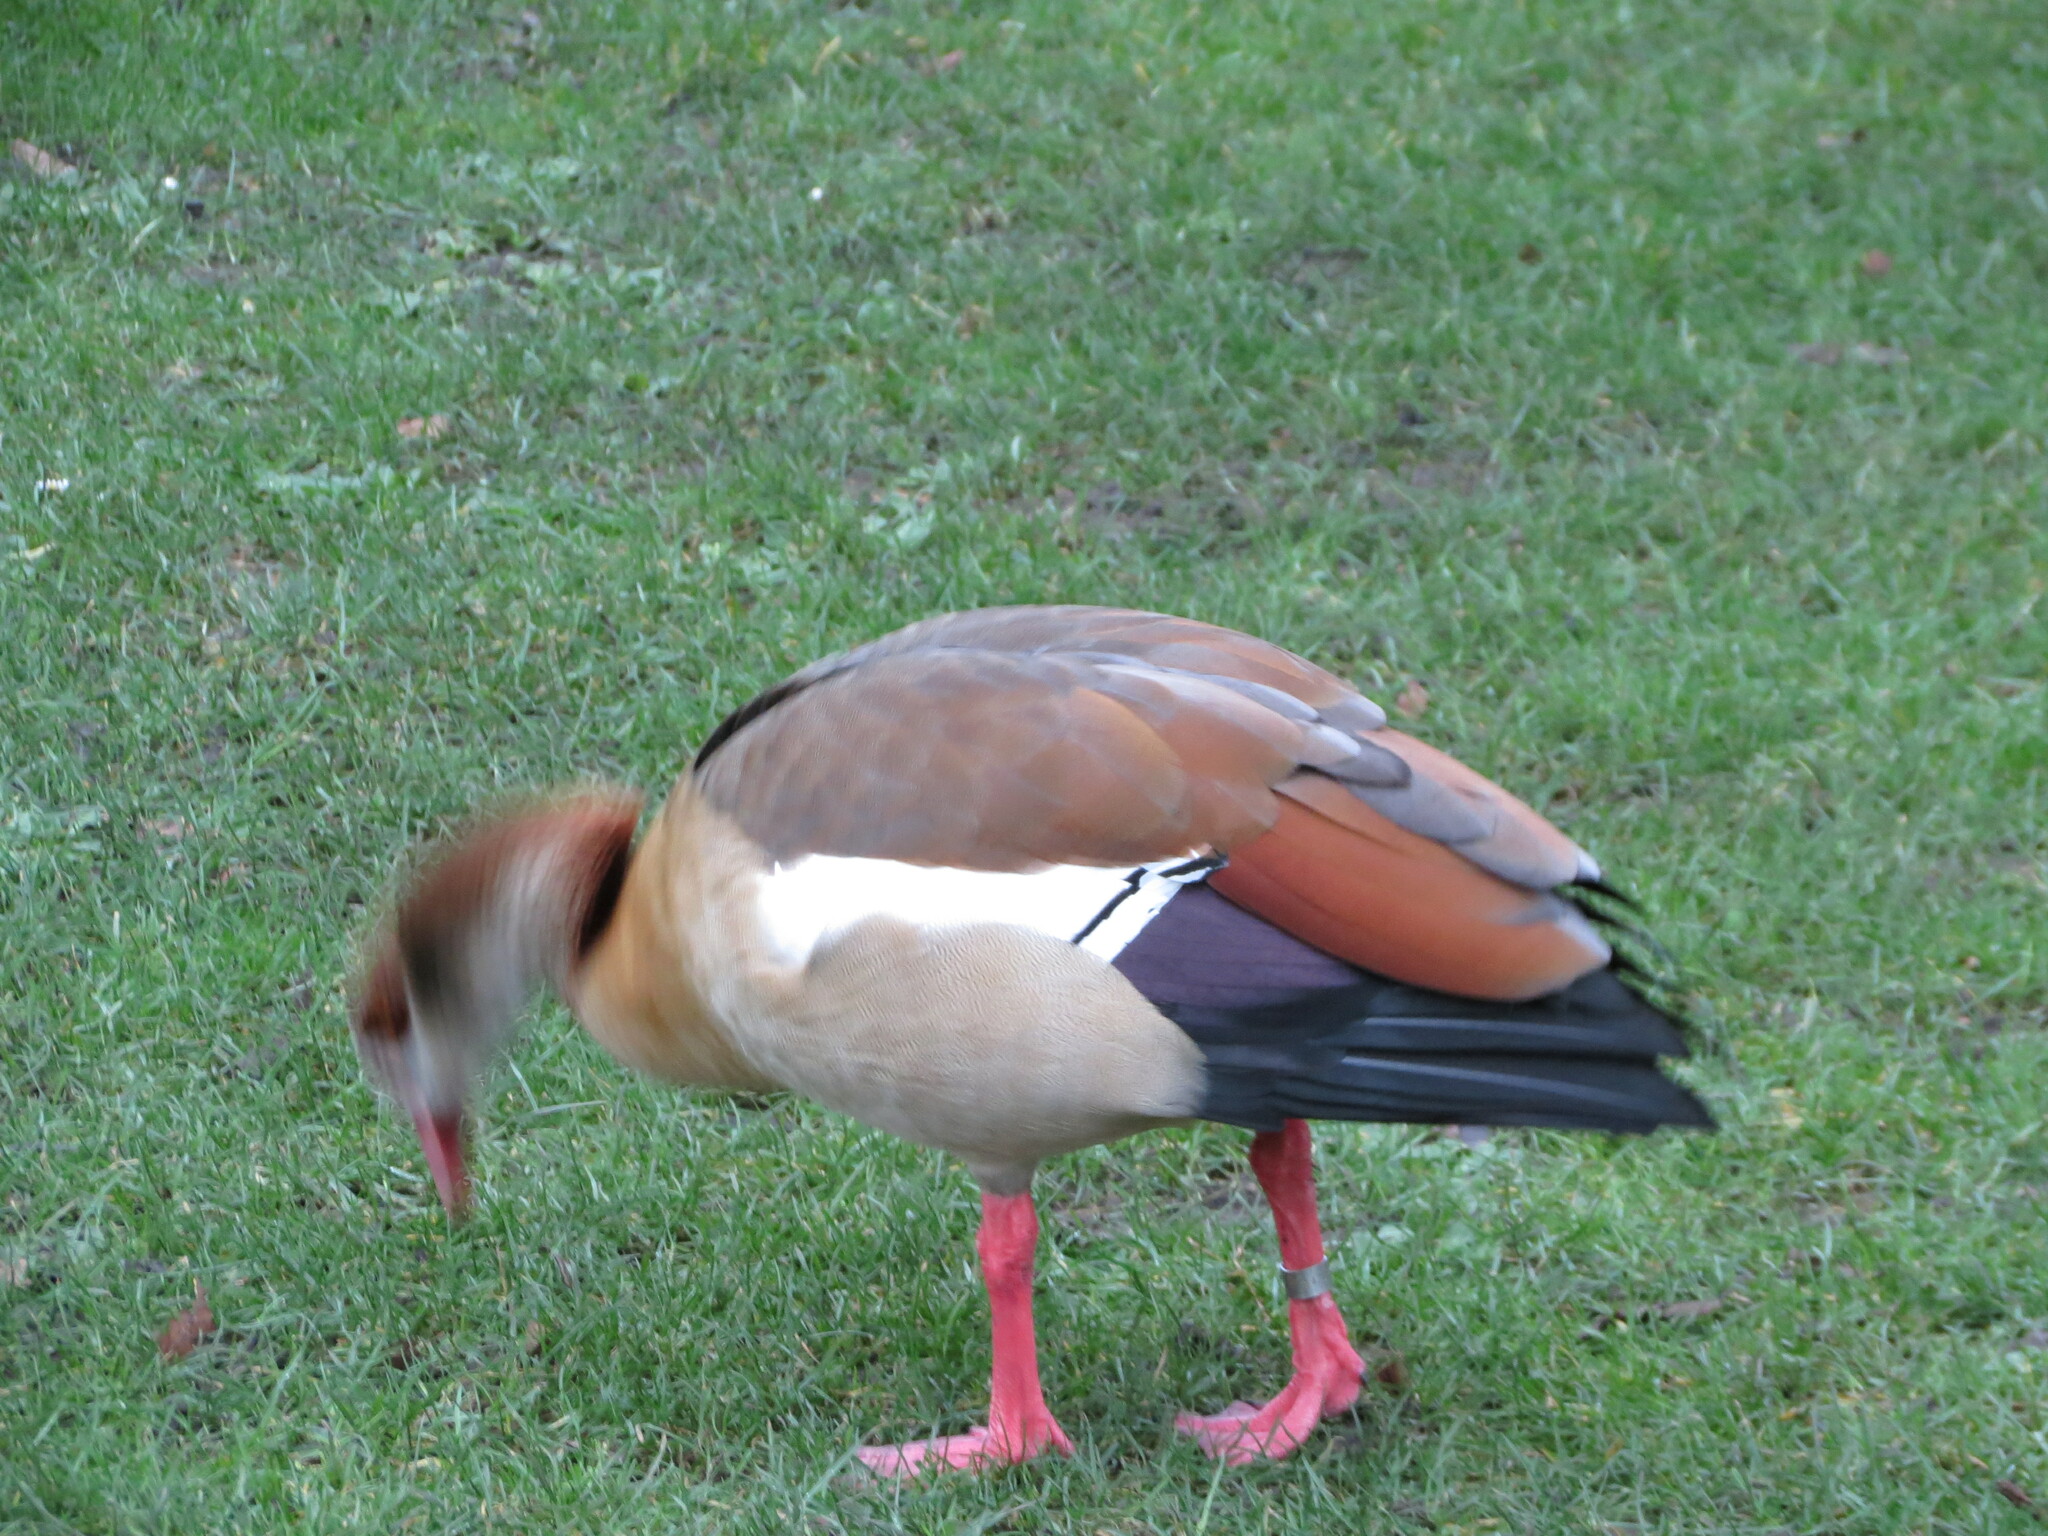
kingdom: Animalia
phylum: Chordata
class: Aves
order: Anseriformes
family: Anatidae
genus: Alopochen
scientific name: Alopochen aegyptiaca
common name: Egyptian goose
